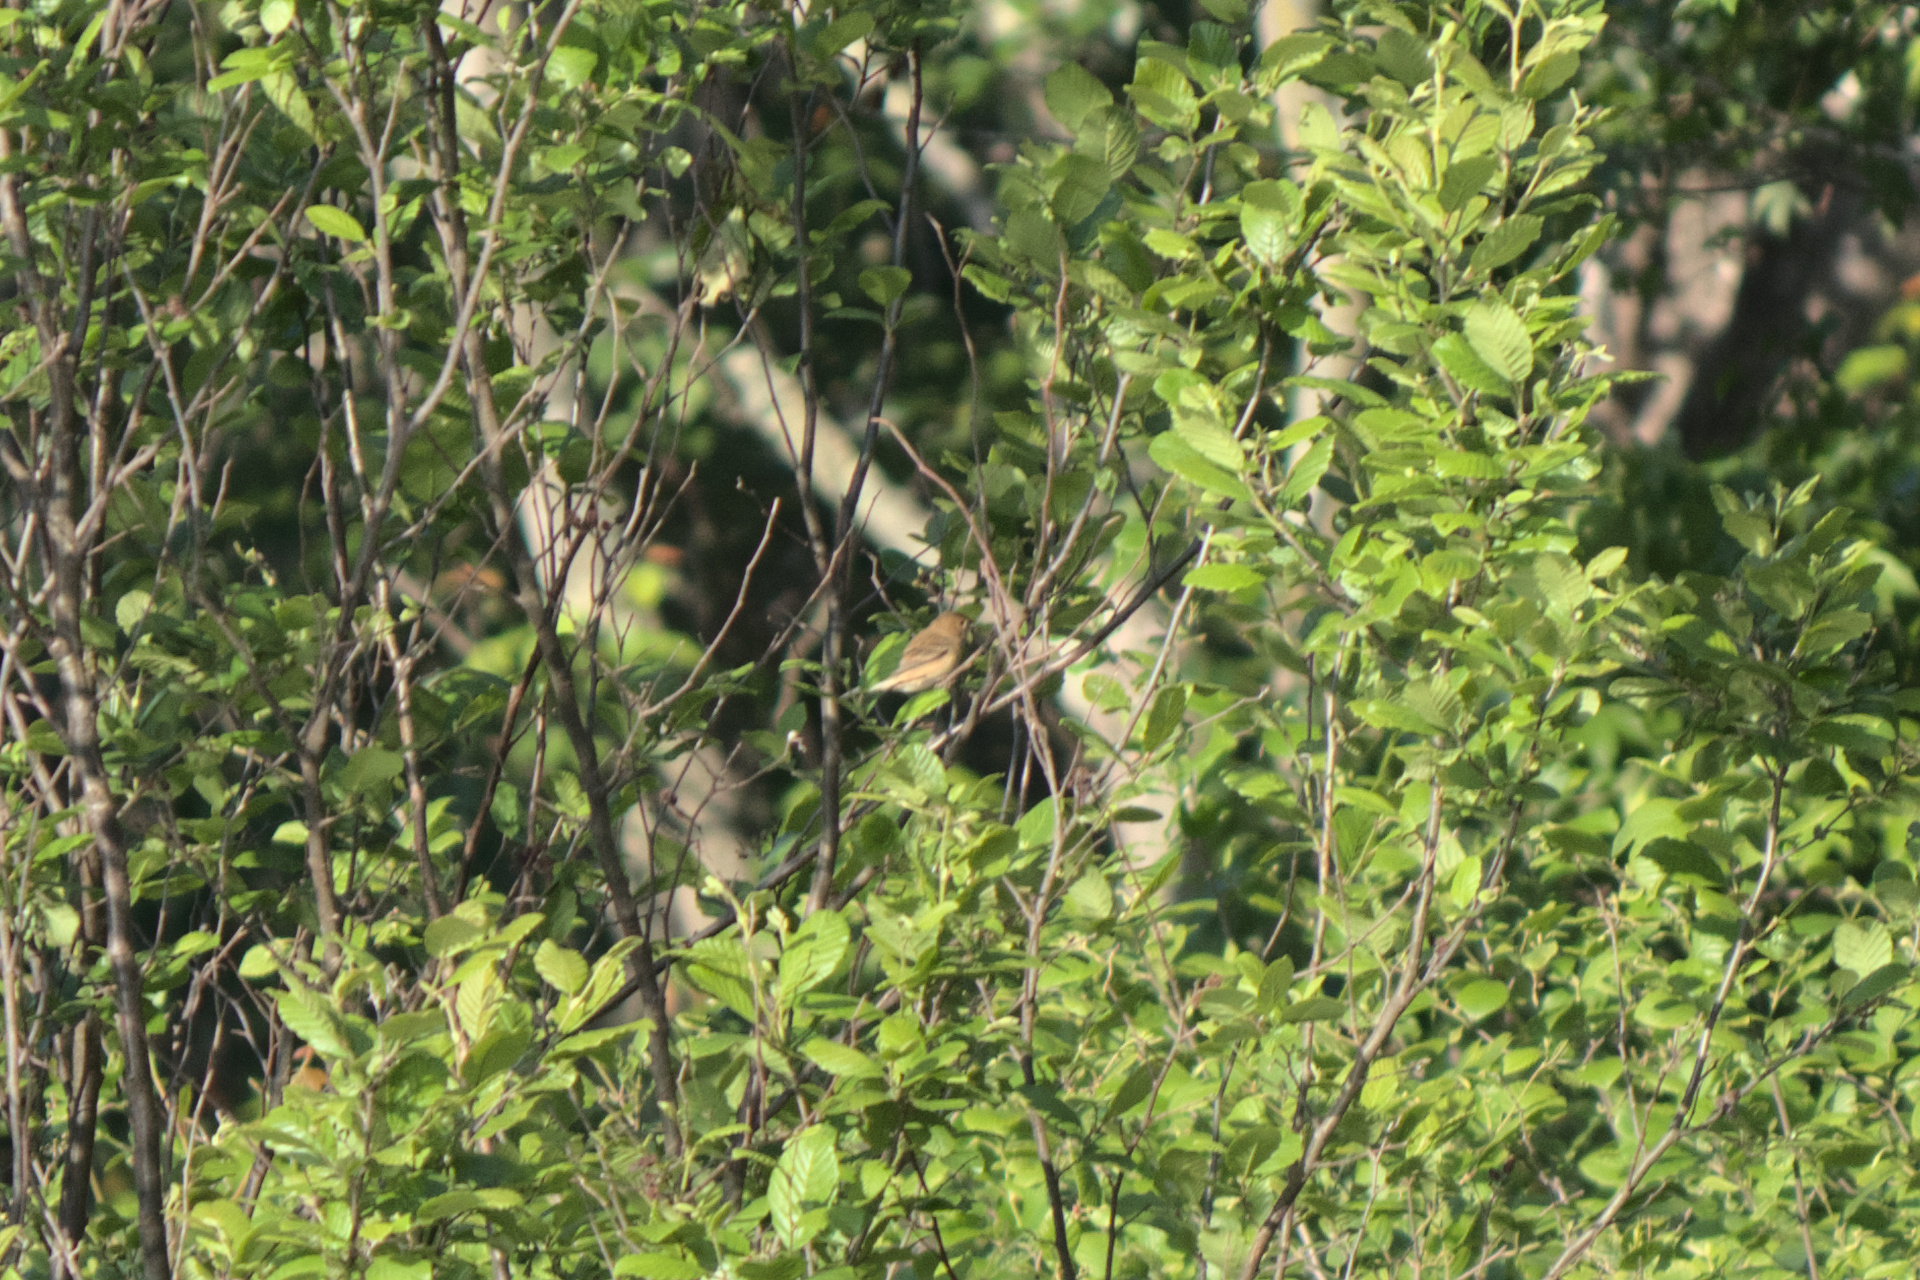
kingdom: Animalia
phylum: Chordata
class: Aves
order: Passeriformes
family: Cardinalidae
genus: Passerina
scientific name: Passerina cyanea
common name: Indigo bunting
